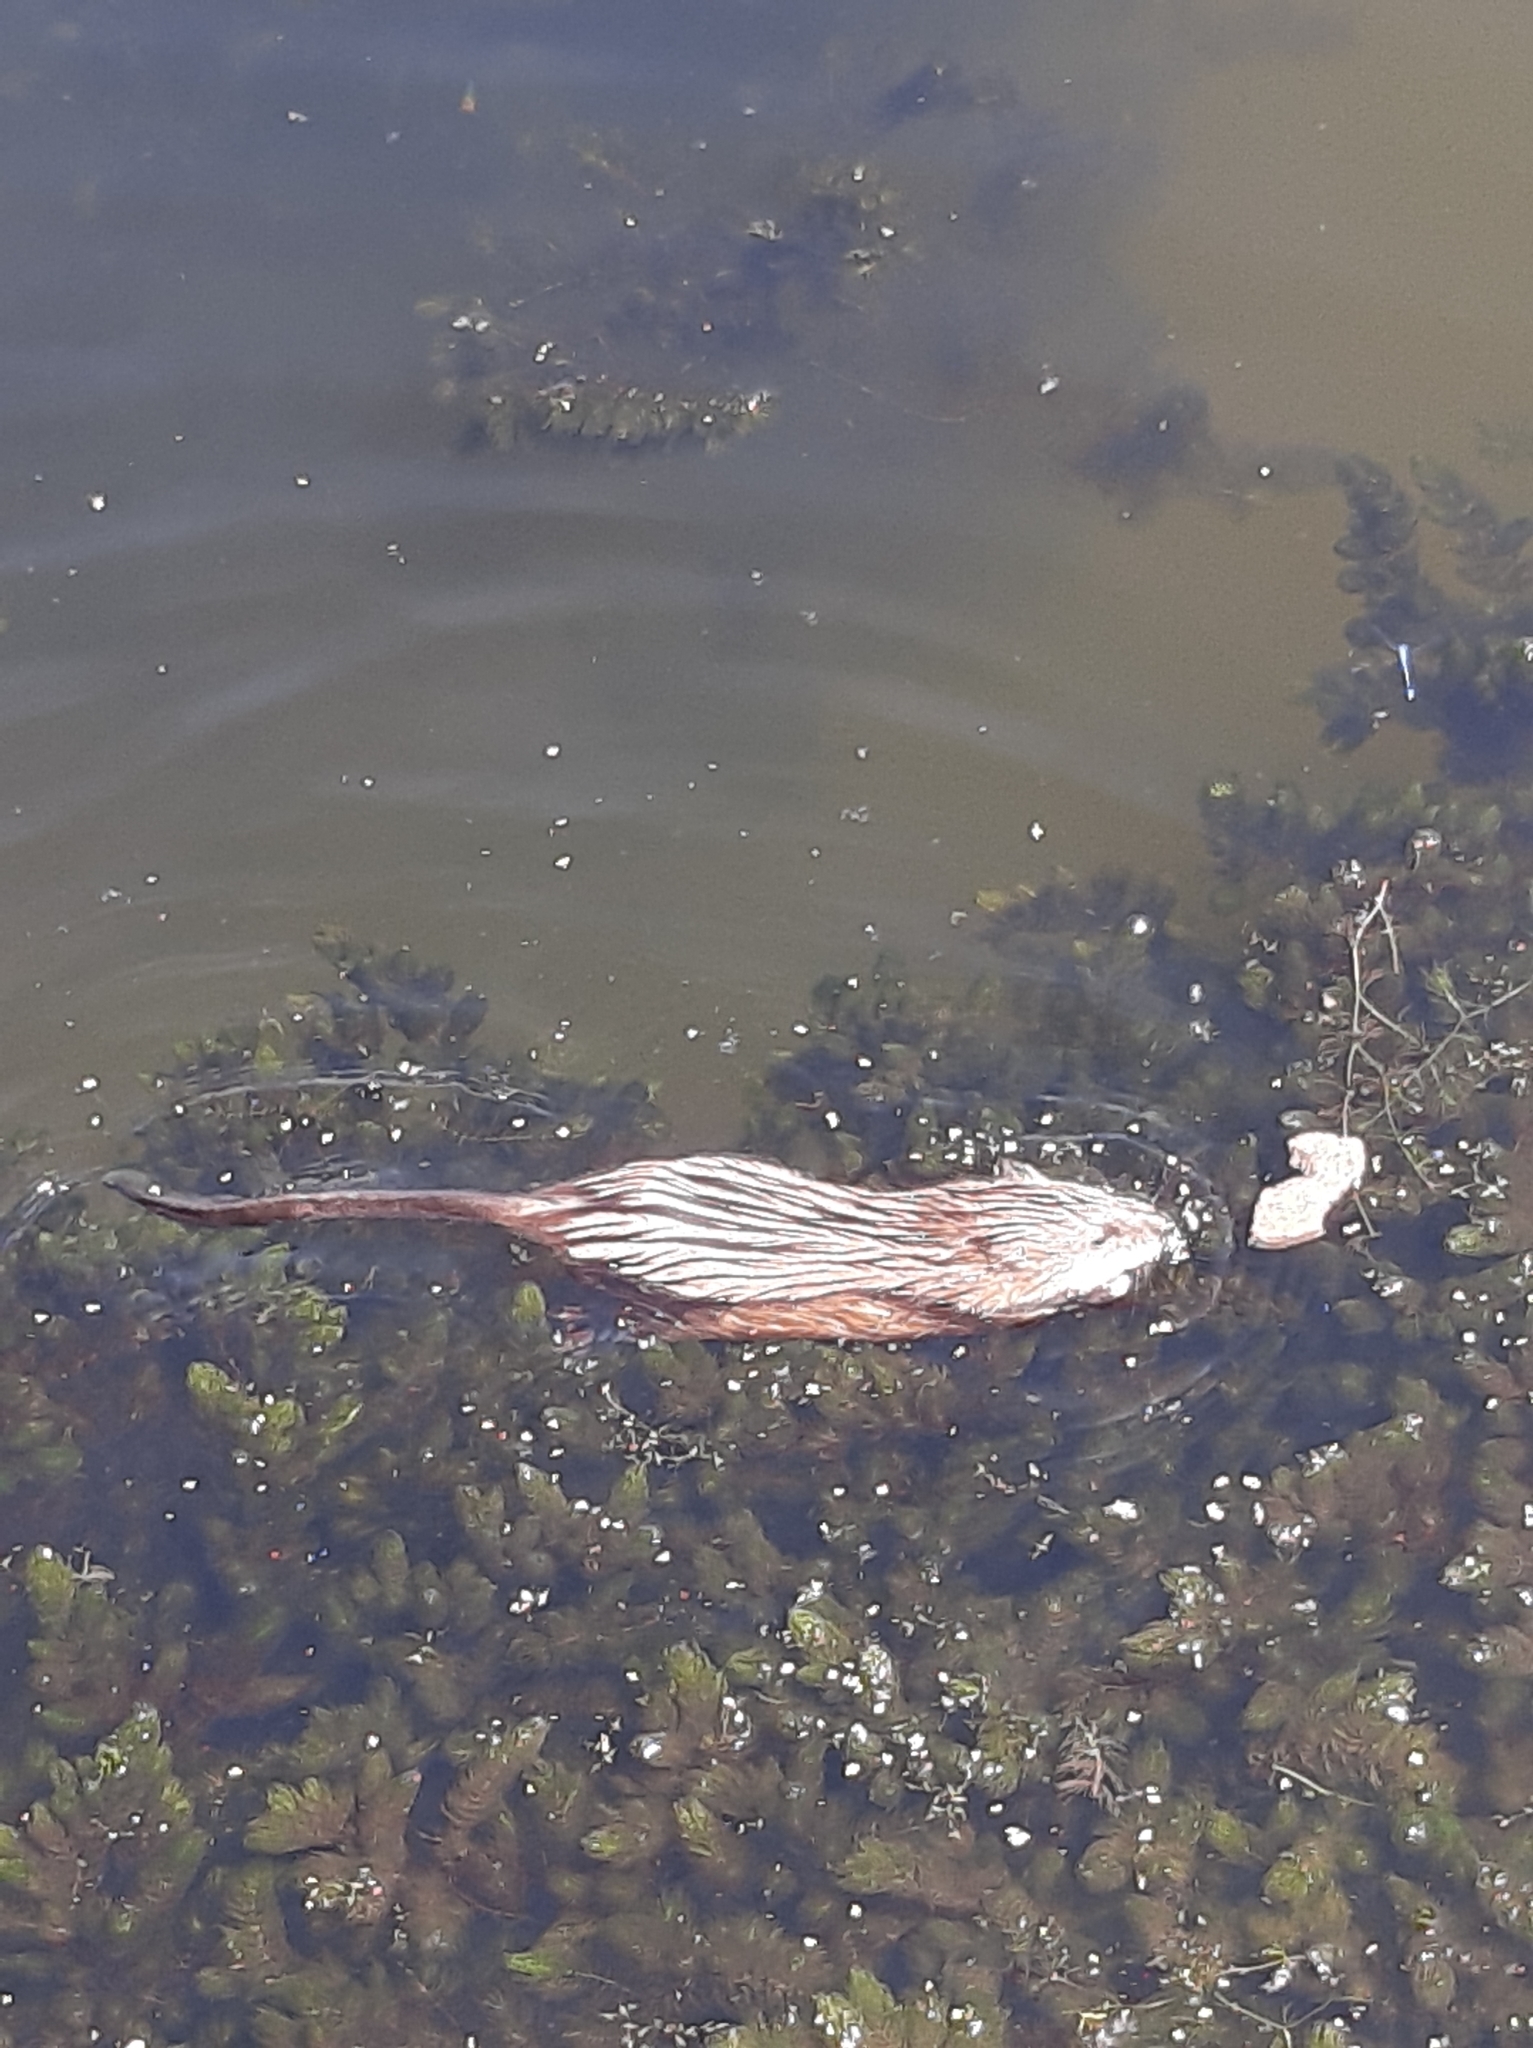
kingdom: Animalia
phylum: Chordata
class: Mammalia
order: Rodentia
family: Cricetidae
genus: Ondatra
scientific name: Ondatra zibethicus
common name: Muskrat
